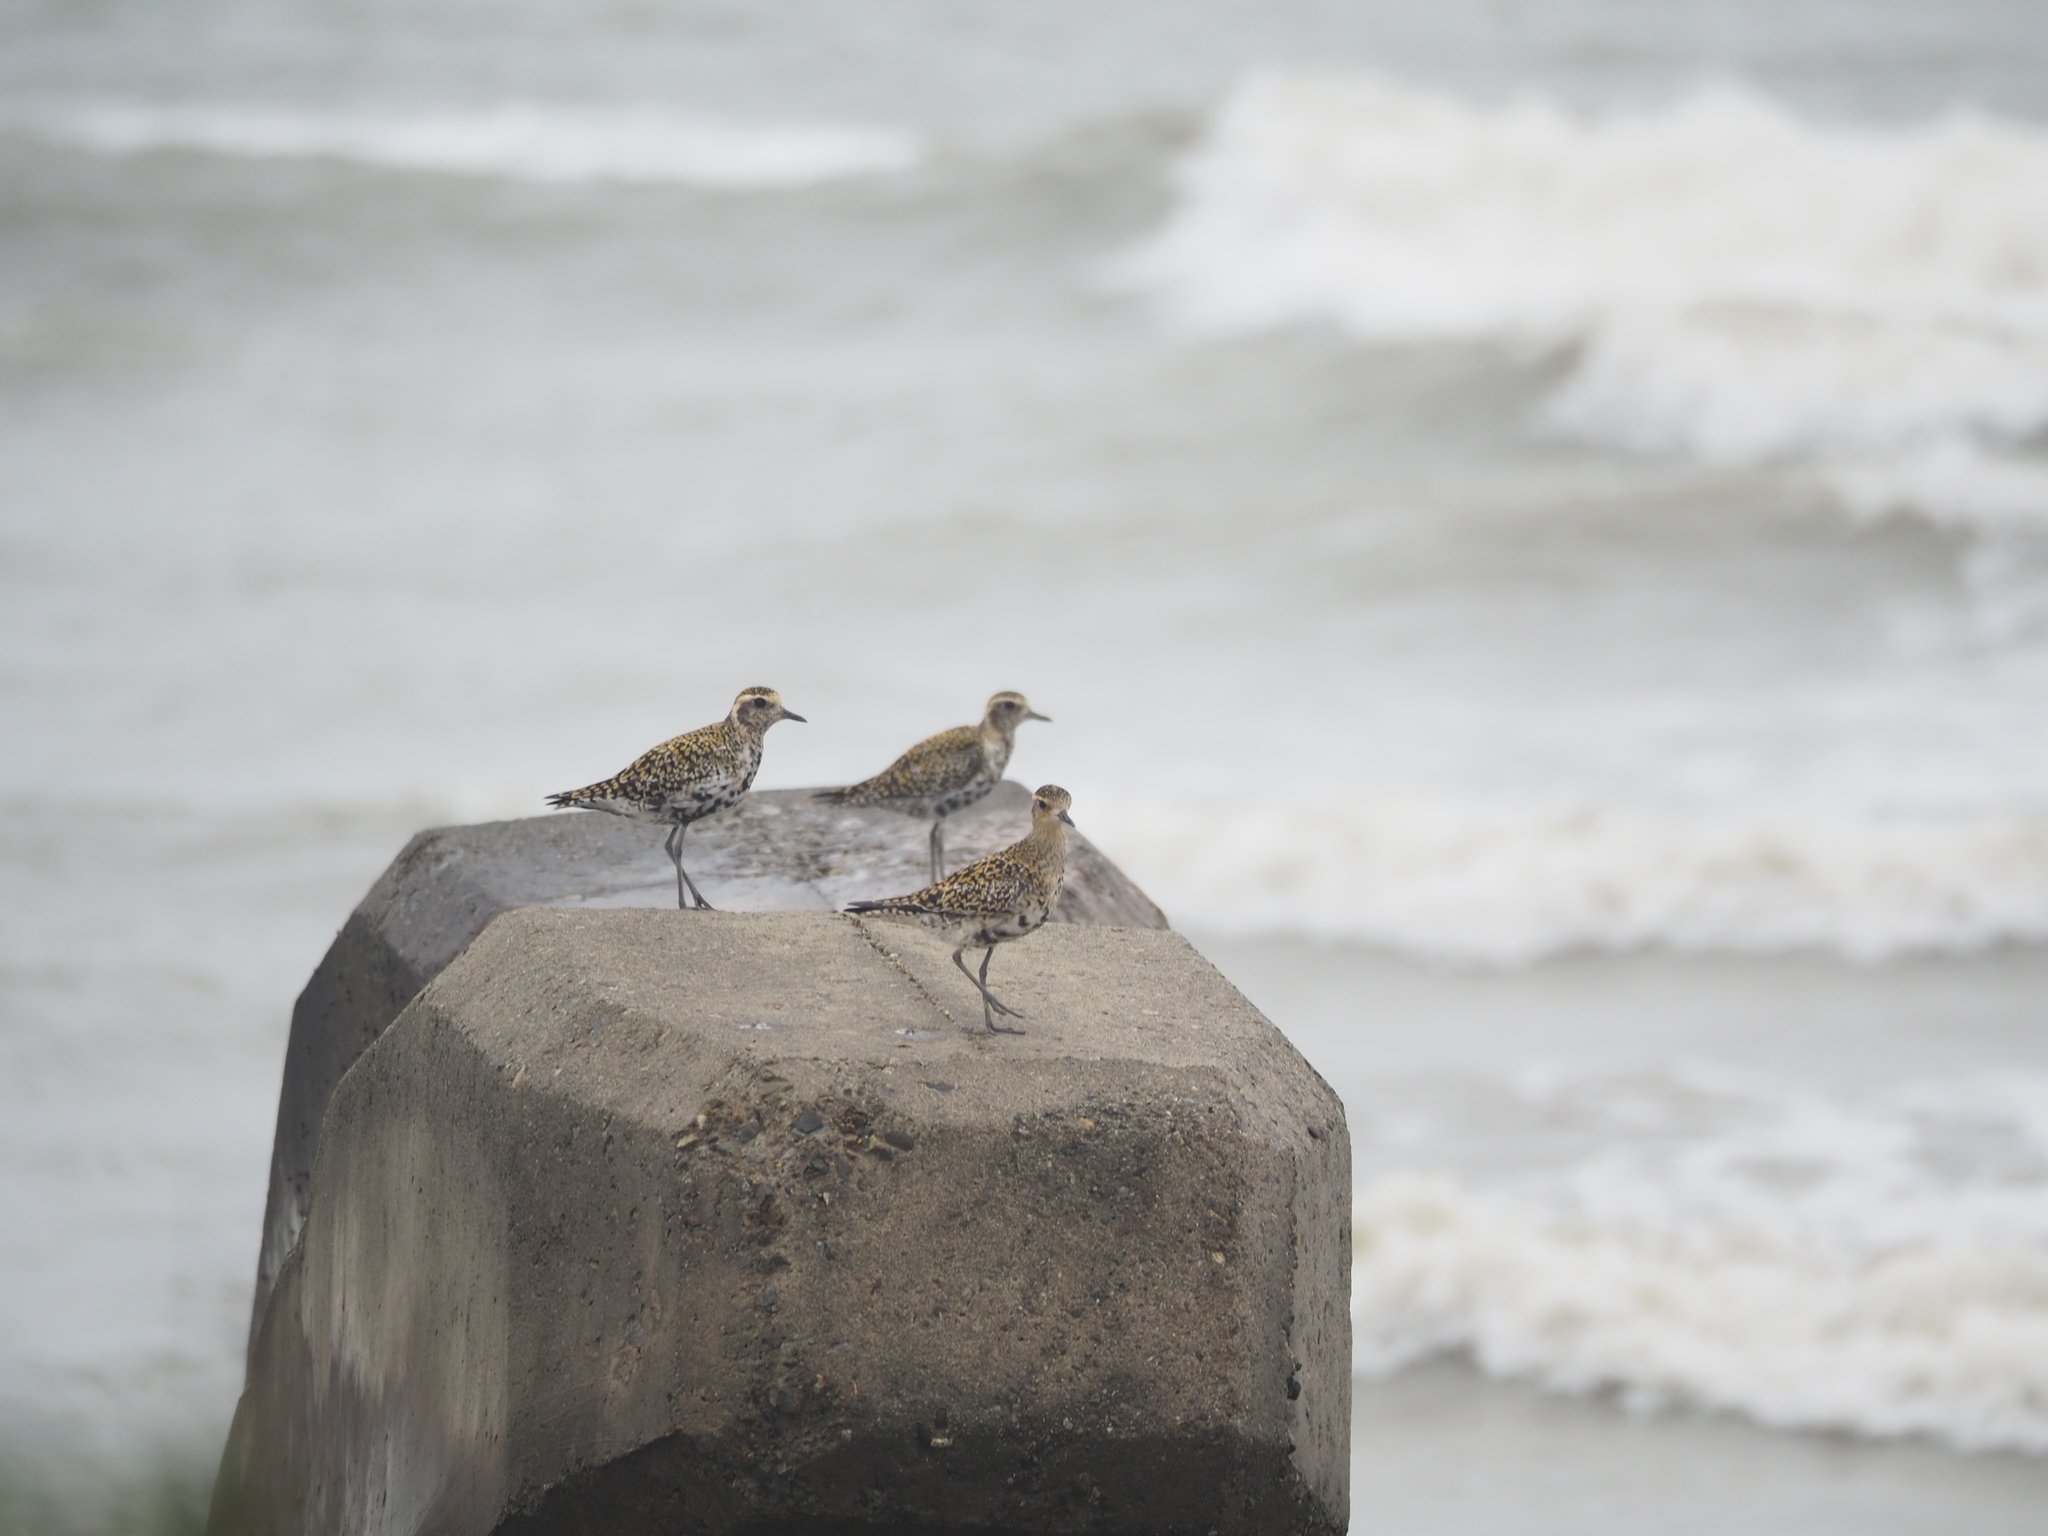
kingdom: Animalia
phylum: Chordata
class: Aves
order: Charadriiformes
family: Charadriidae
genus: Pluvialis
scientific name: Pluvialis fulva
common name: Pacific golden plover
